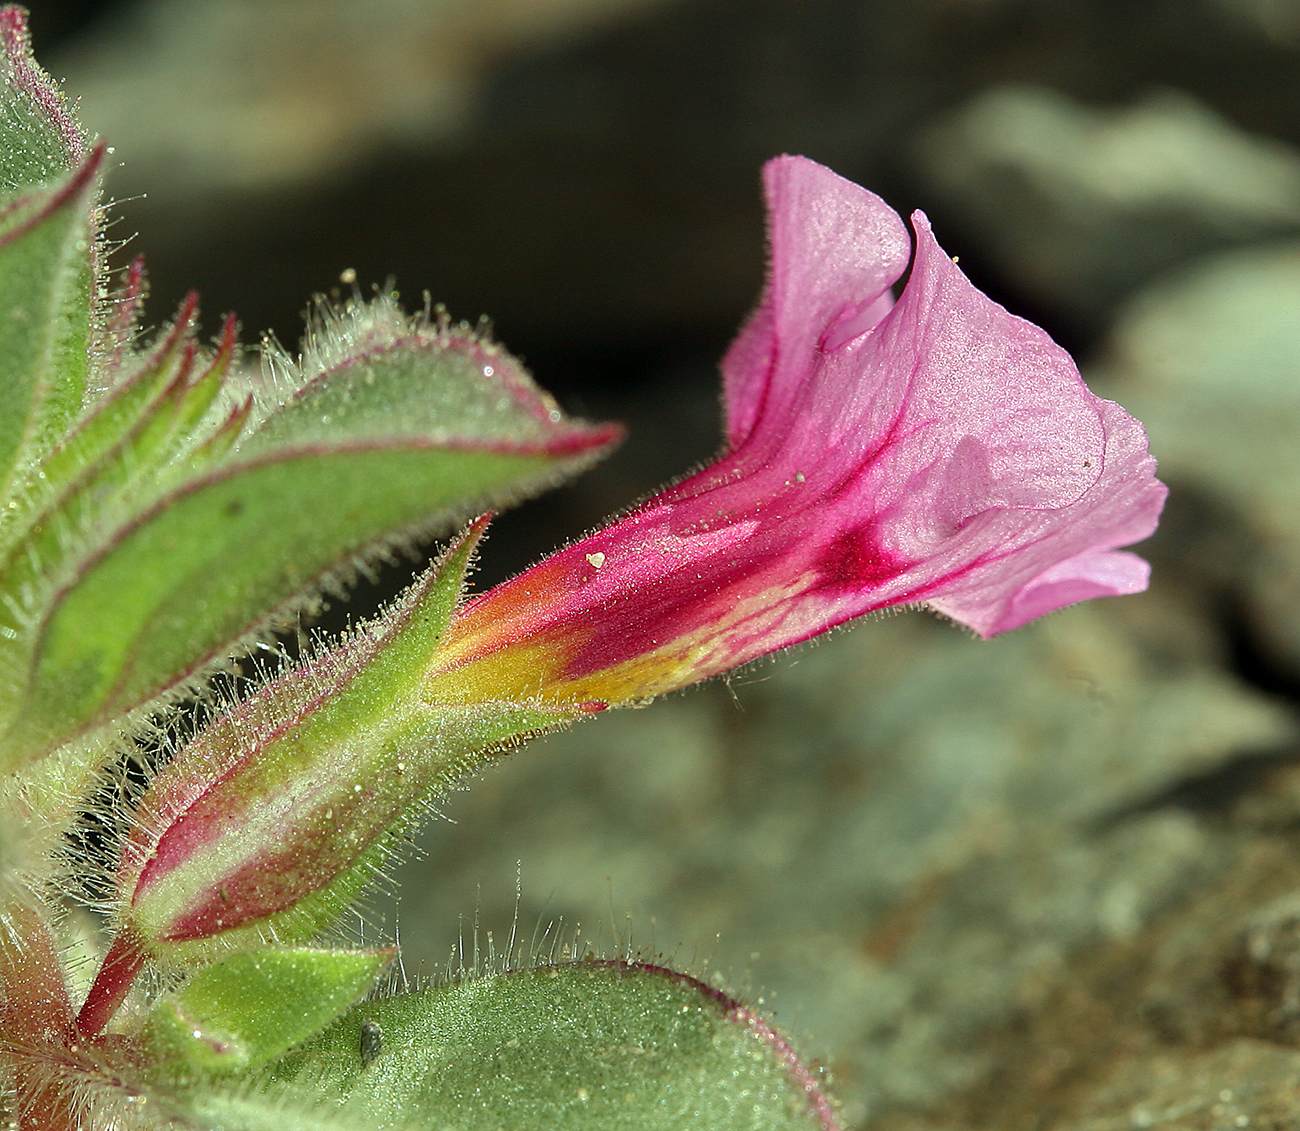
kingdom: Plantae
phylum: Tracheophyta
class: Magnoliopsida
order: Lamiales
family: Phrymaceae
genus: Diplacus
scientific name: Diplacus bigelovii
